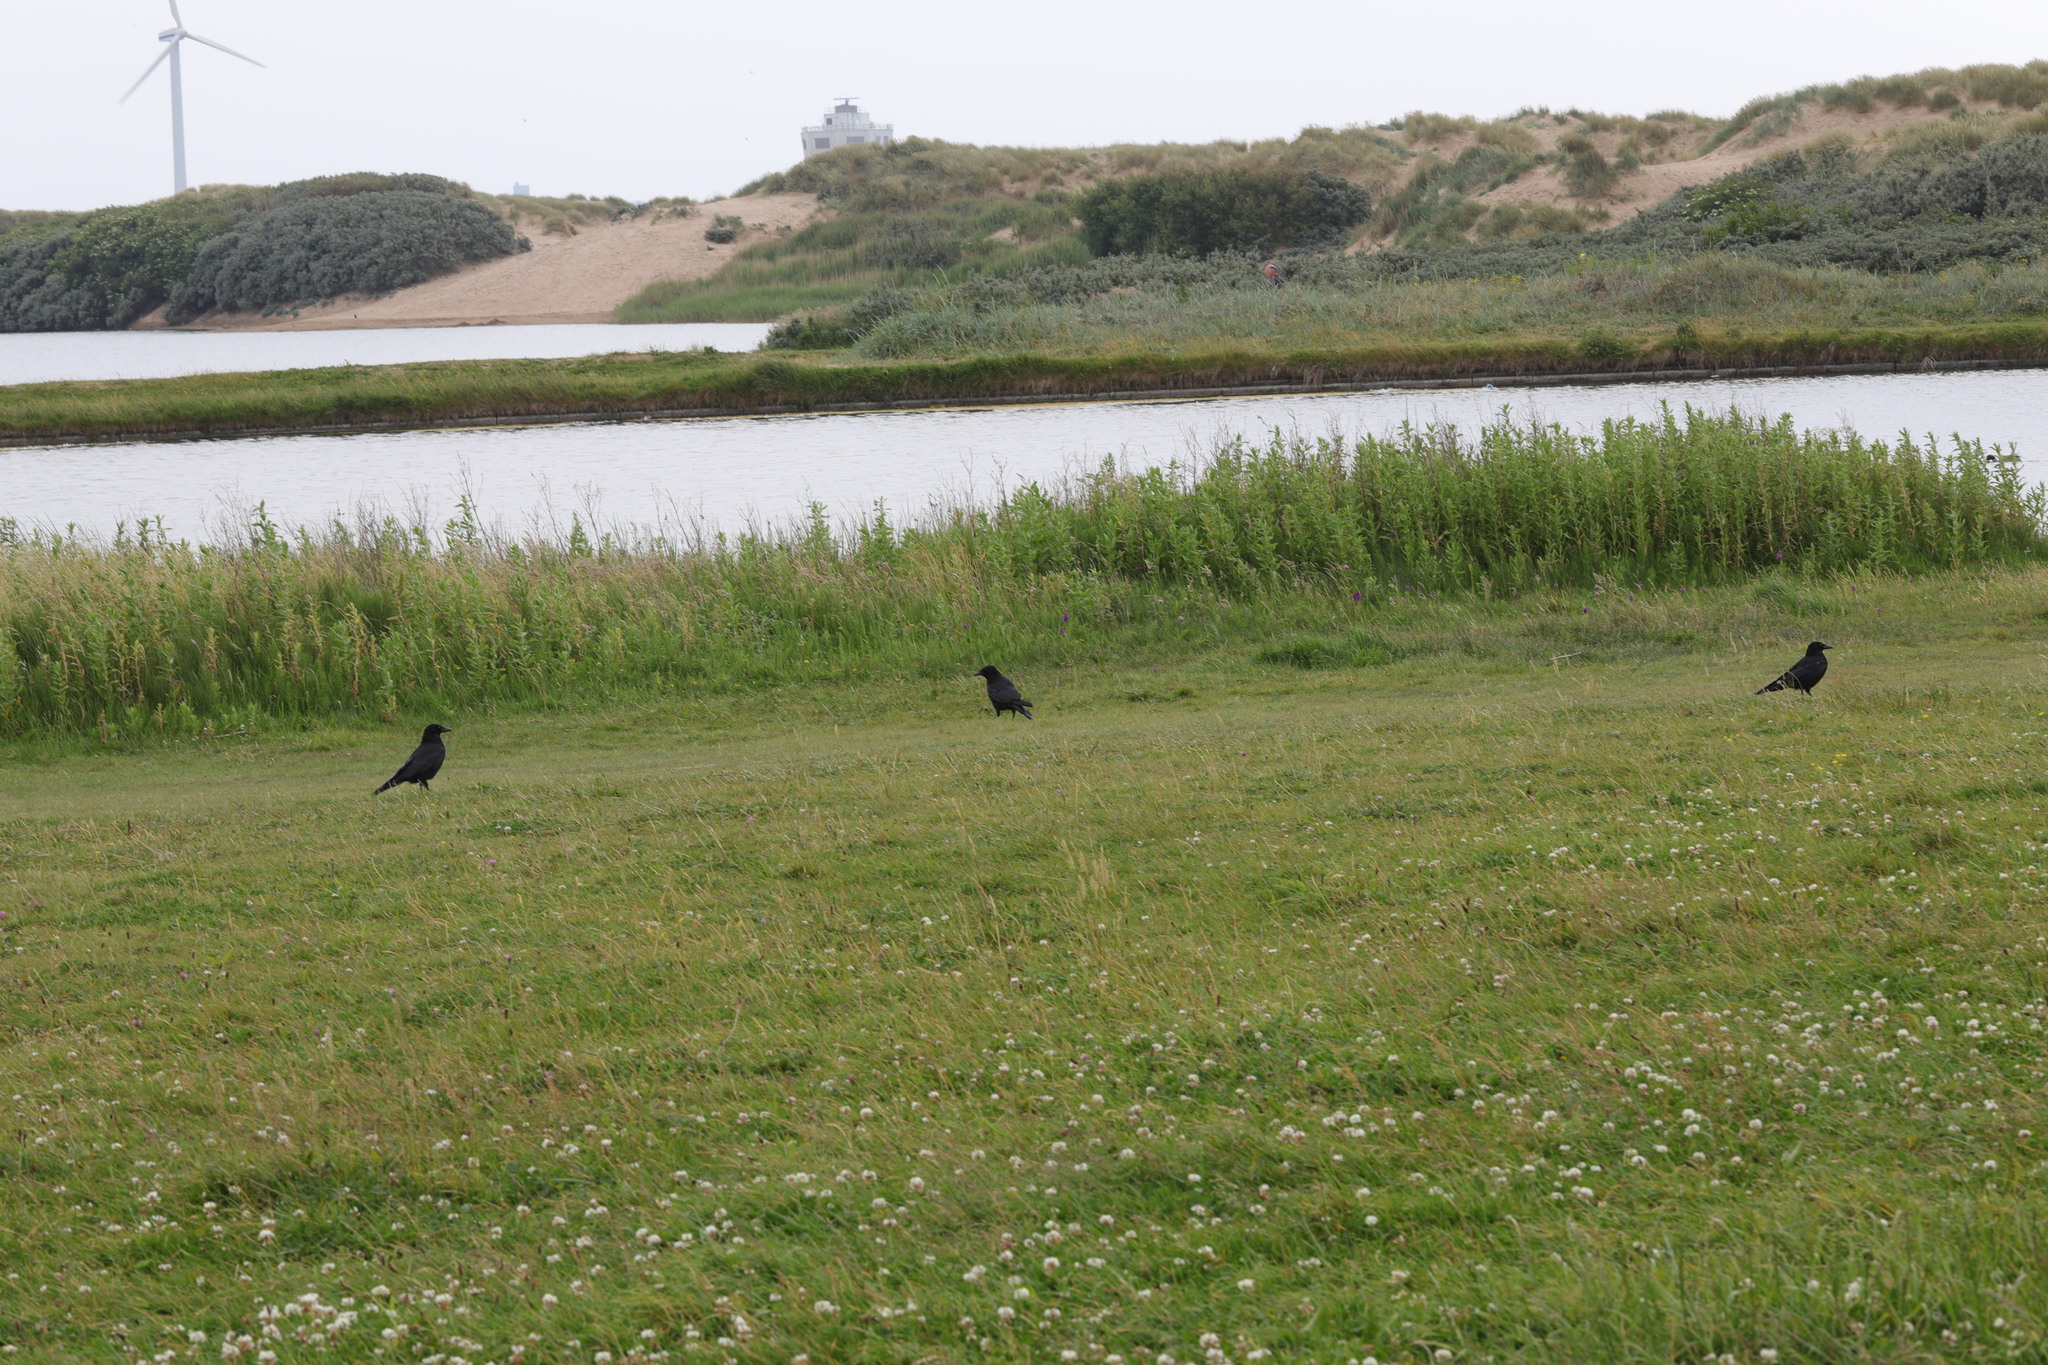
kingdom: Animalia
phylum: Chordata
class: Aves
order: Passeriformes
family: Corvidae
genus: Corvus
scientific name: Corvus corone
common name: Carrion crow
